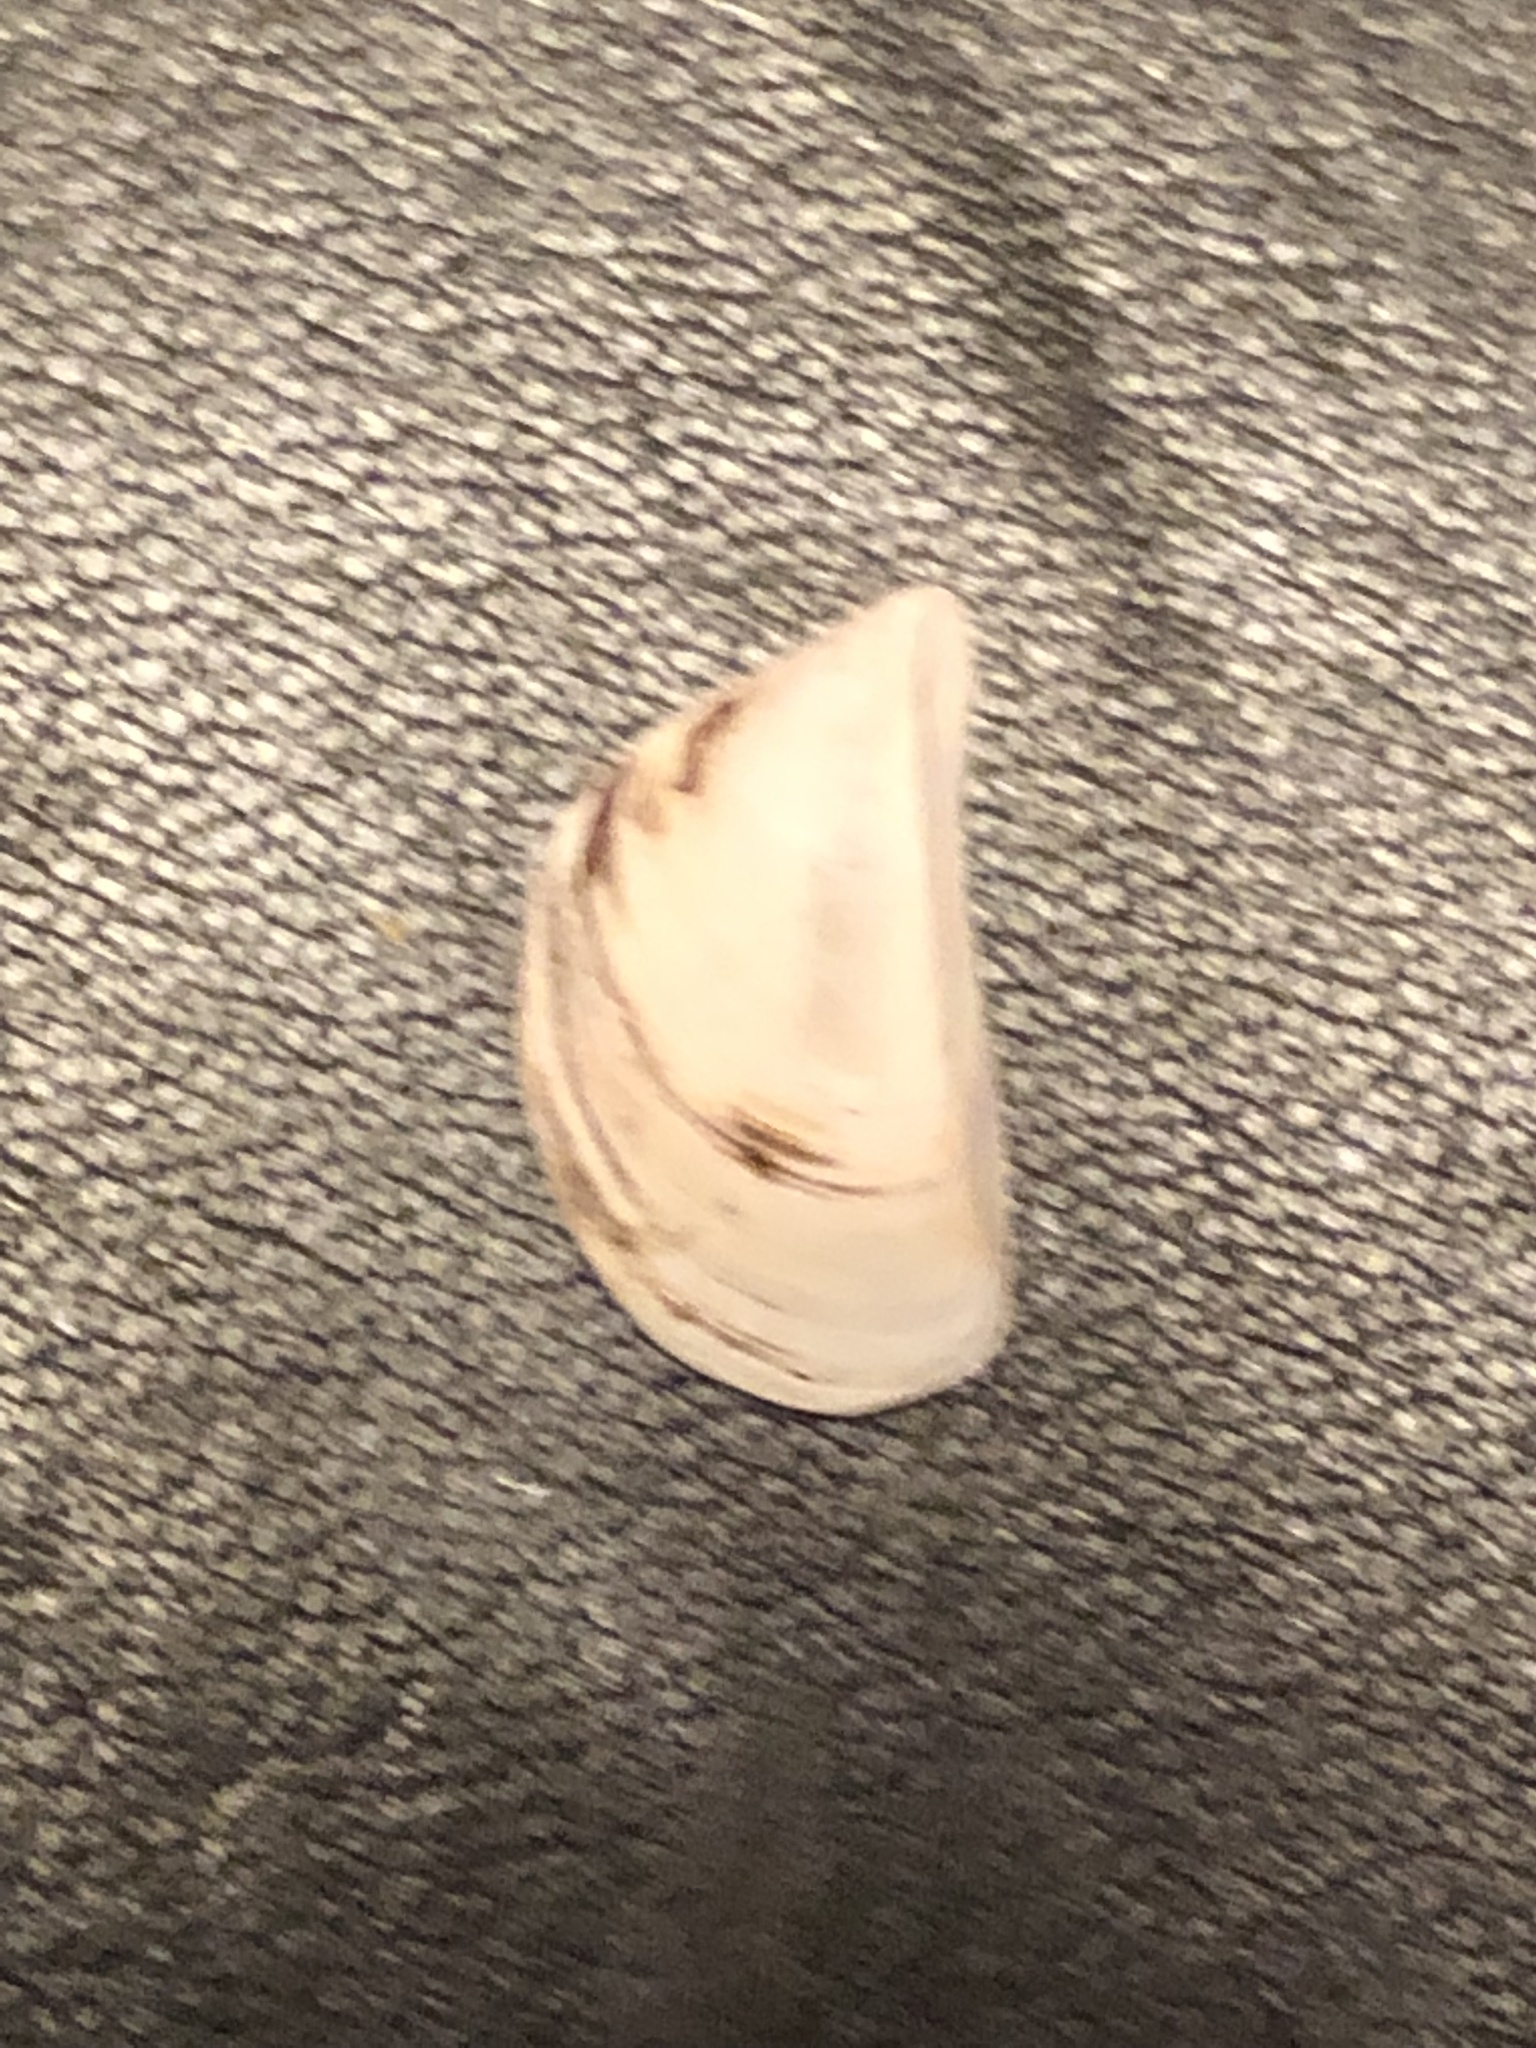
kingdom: Animalia
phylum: Mollusca
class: Bivalvia
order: Myida
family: Dreissenidae
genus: Dreissena
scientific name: Dreissena polymorpha
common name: Zebra mussel
